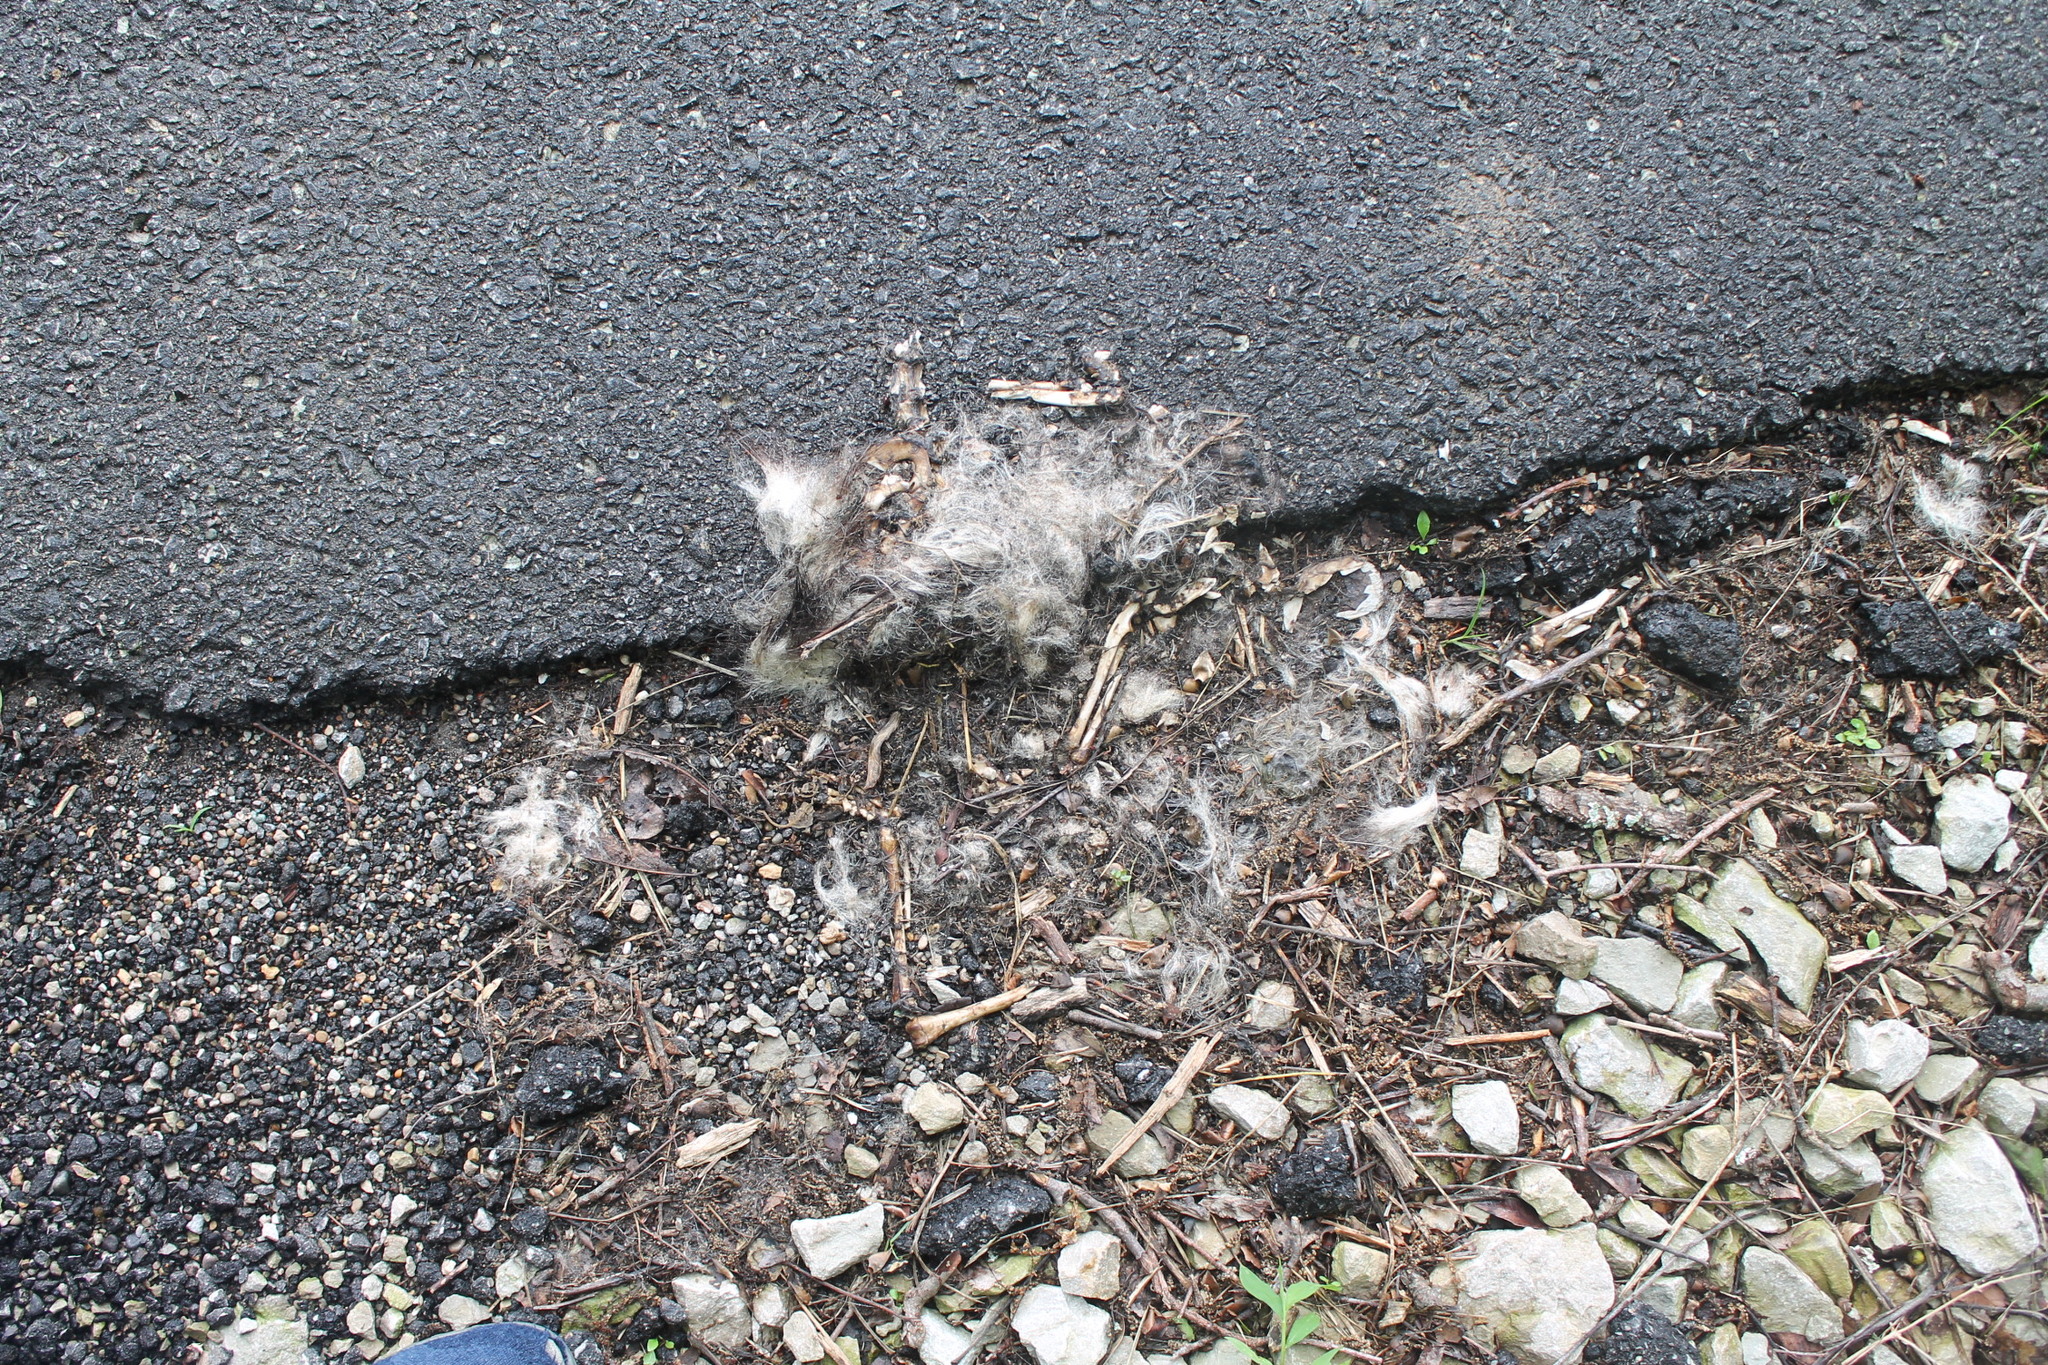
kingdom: Animalia
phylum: Chordata
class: Mammalia
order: Didelphimorphia
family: Didelphidae
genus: Didelphis
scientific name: Didelphis virginiana
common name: Virginia opossum
